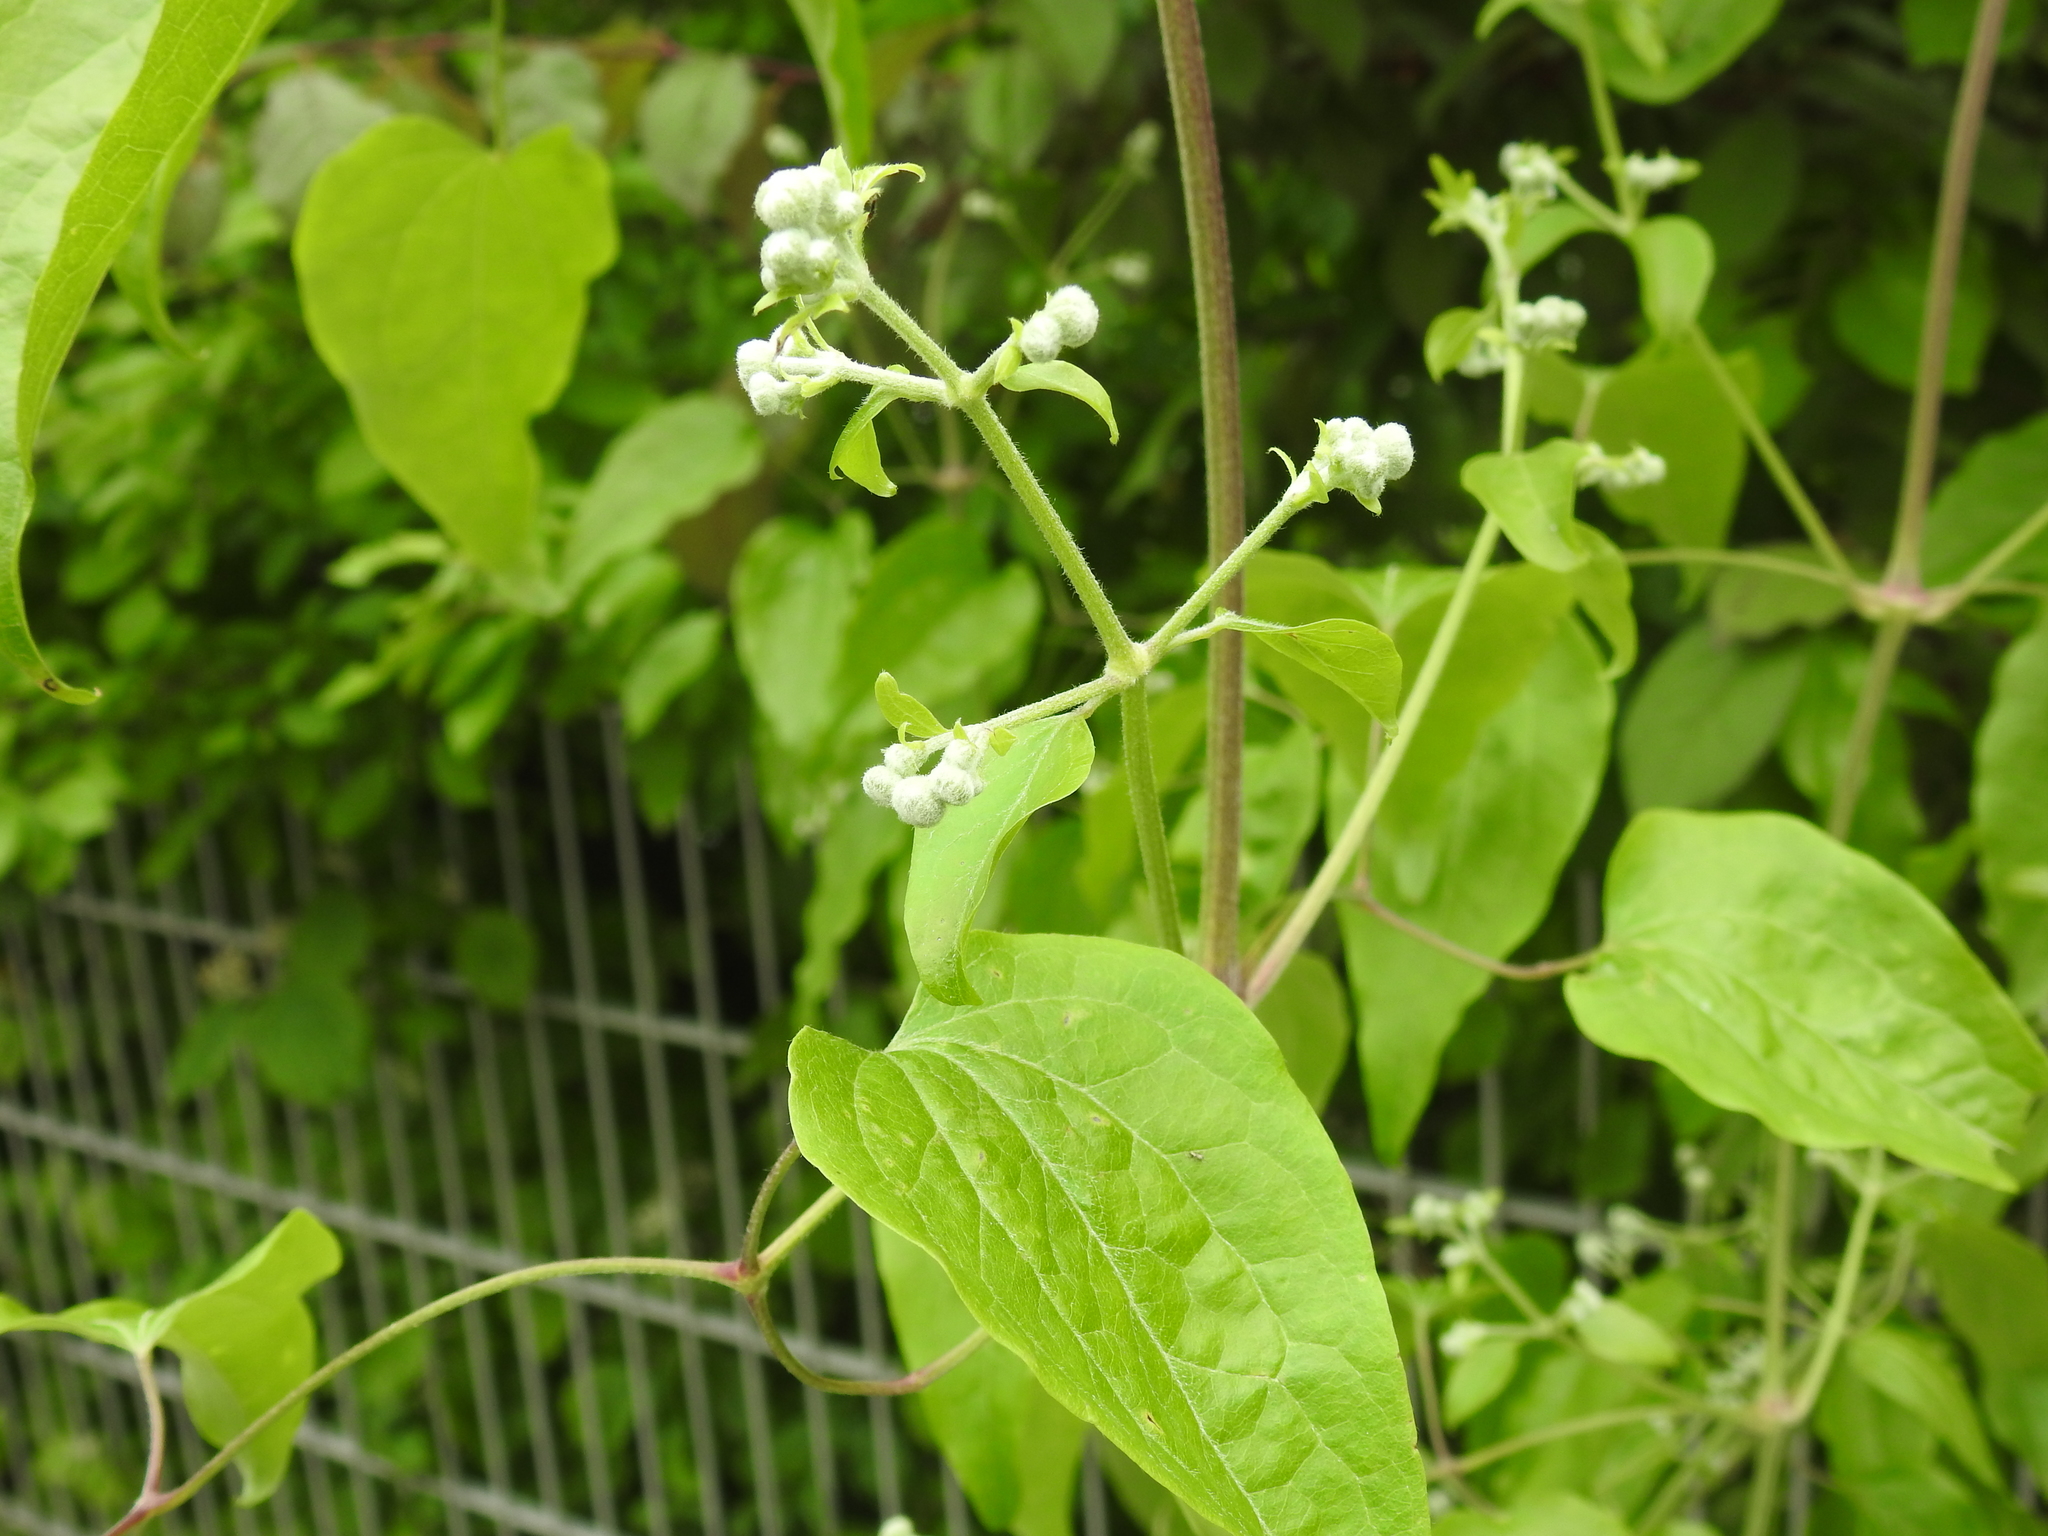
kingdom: Plantae
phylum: Tracheophyta
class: Magnoliopsida
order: Ranunculales
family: Ranunculaceae
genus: Clematis
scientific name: Clematis vitalba
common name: Evergreen clematis
